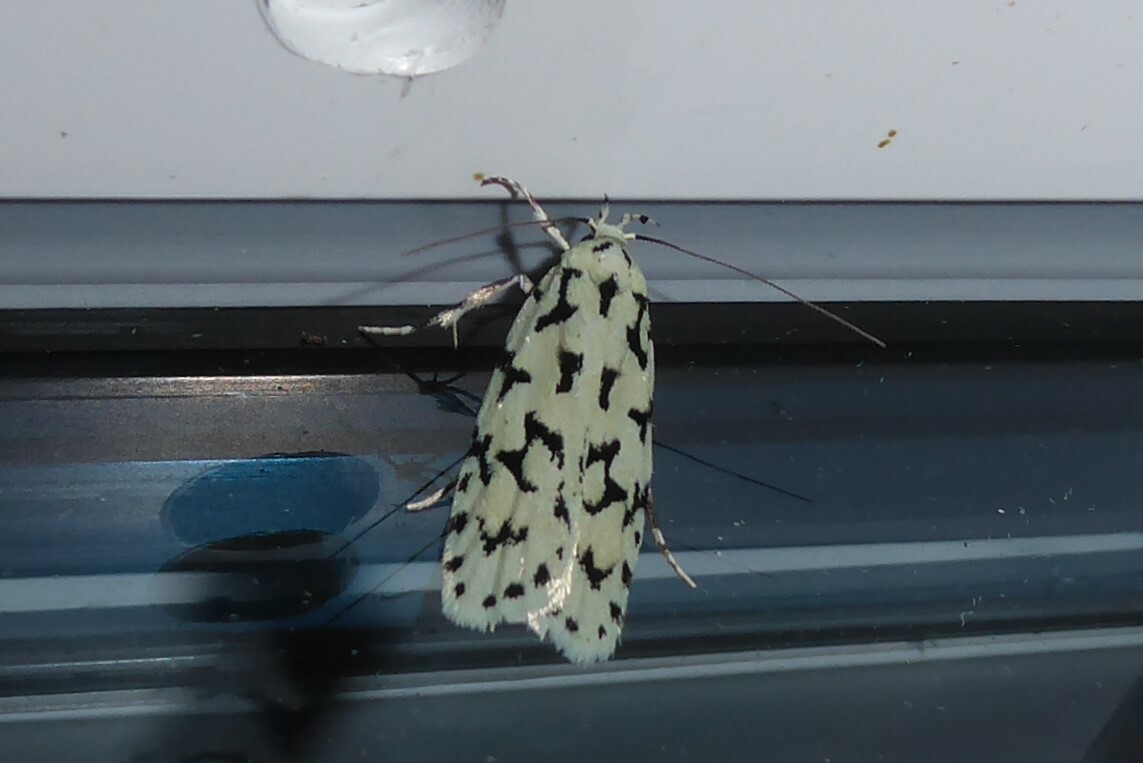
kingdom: Animalia
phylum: Arthropoda
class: Insecta
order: Lepidoptera
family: Oecophoridae
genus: Izatha
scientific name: Izatha huttoni
